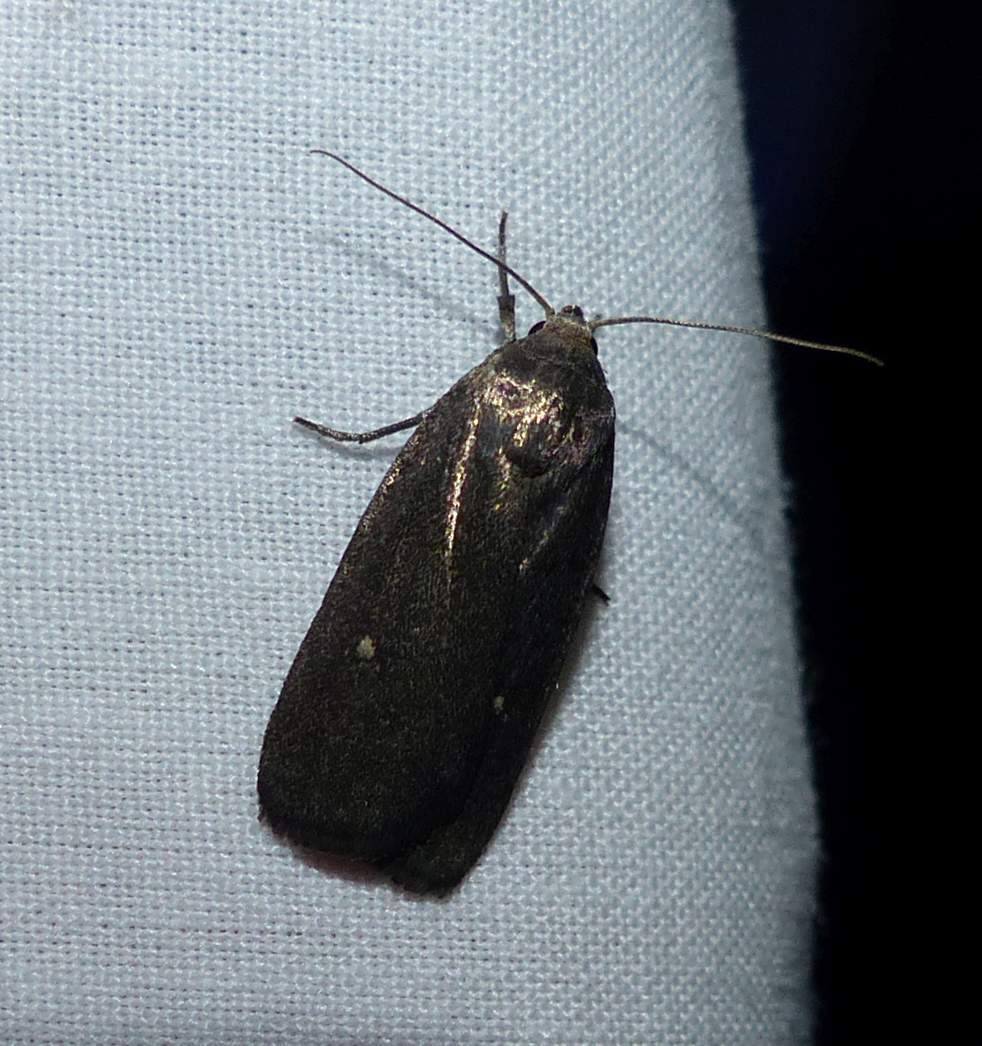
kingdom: Animalia
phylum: Arthropoda
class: Insecta
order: Lepidoptera
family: Noctuidae
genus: Proxenus
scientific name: Proxenus miranda
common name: Miranda moth
